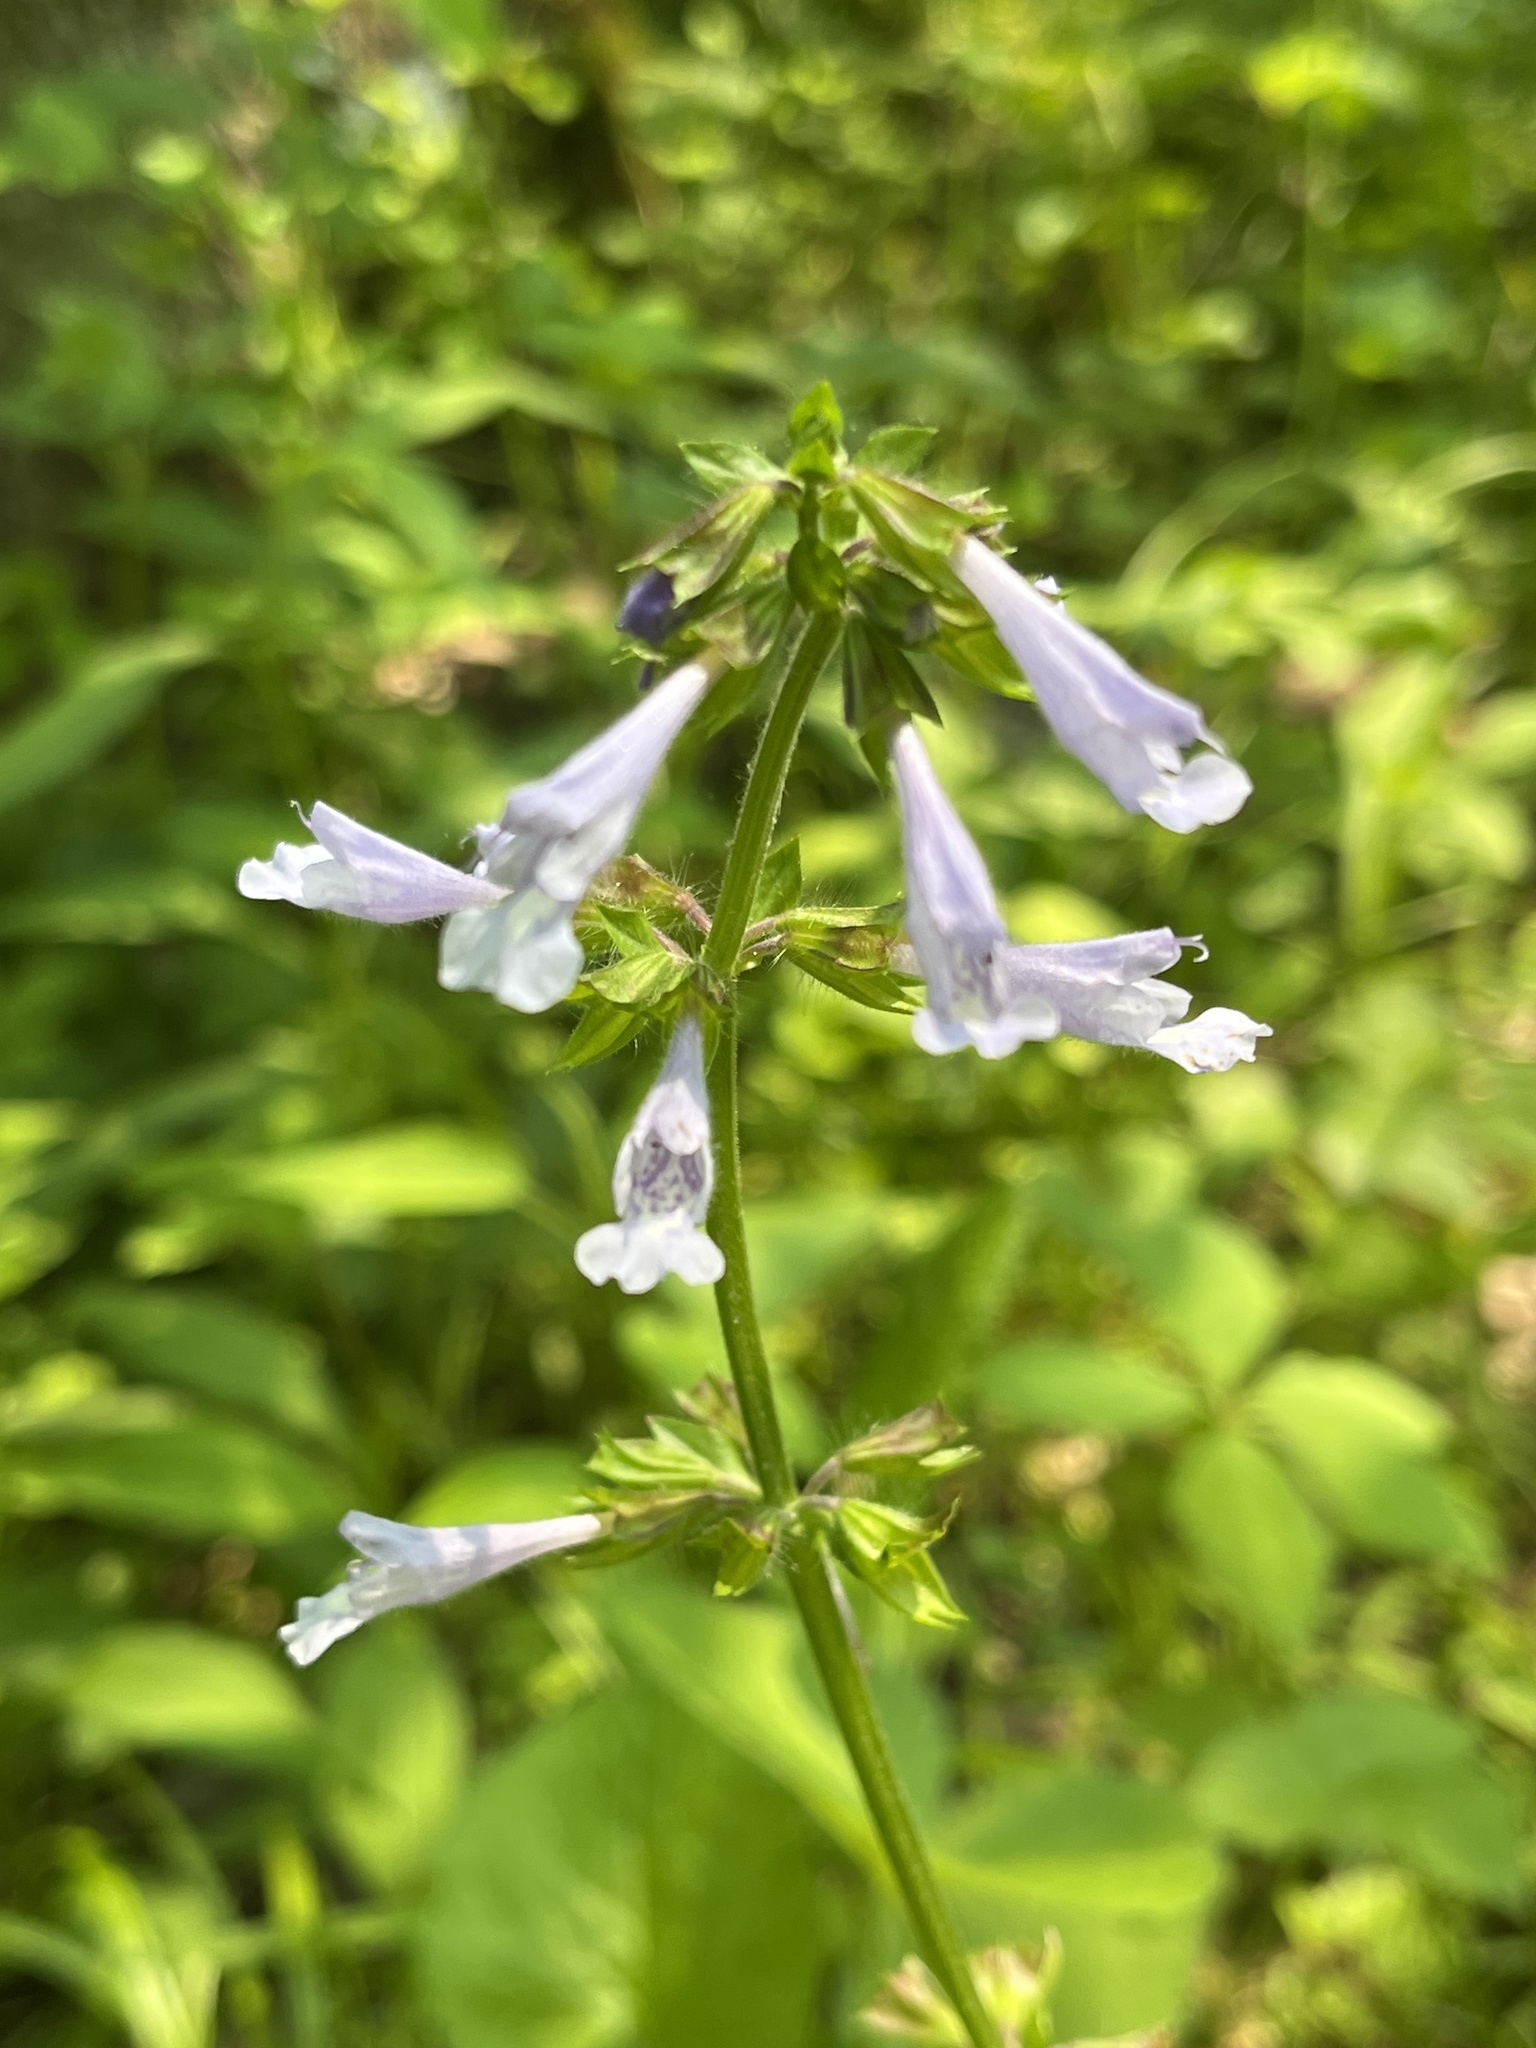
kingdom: Plantae
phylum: Tracheophyta
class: Magnoliopsida
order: Lamiales
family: Lamiaceae
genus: Salvia
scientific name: Salvia lyrata
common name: Cancerweed
